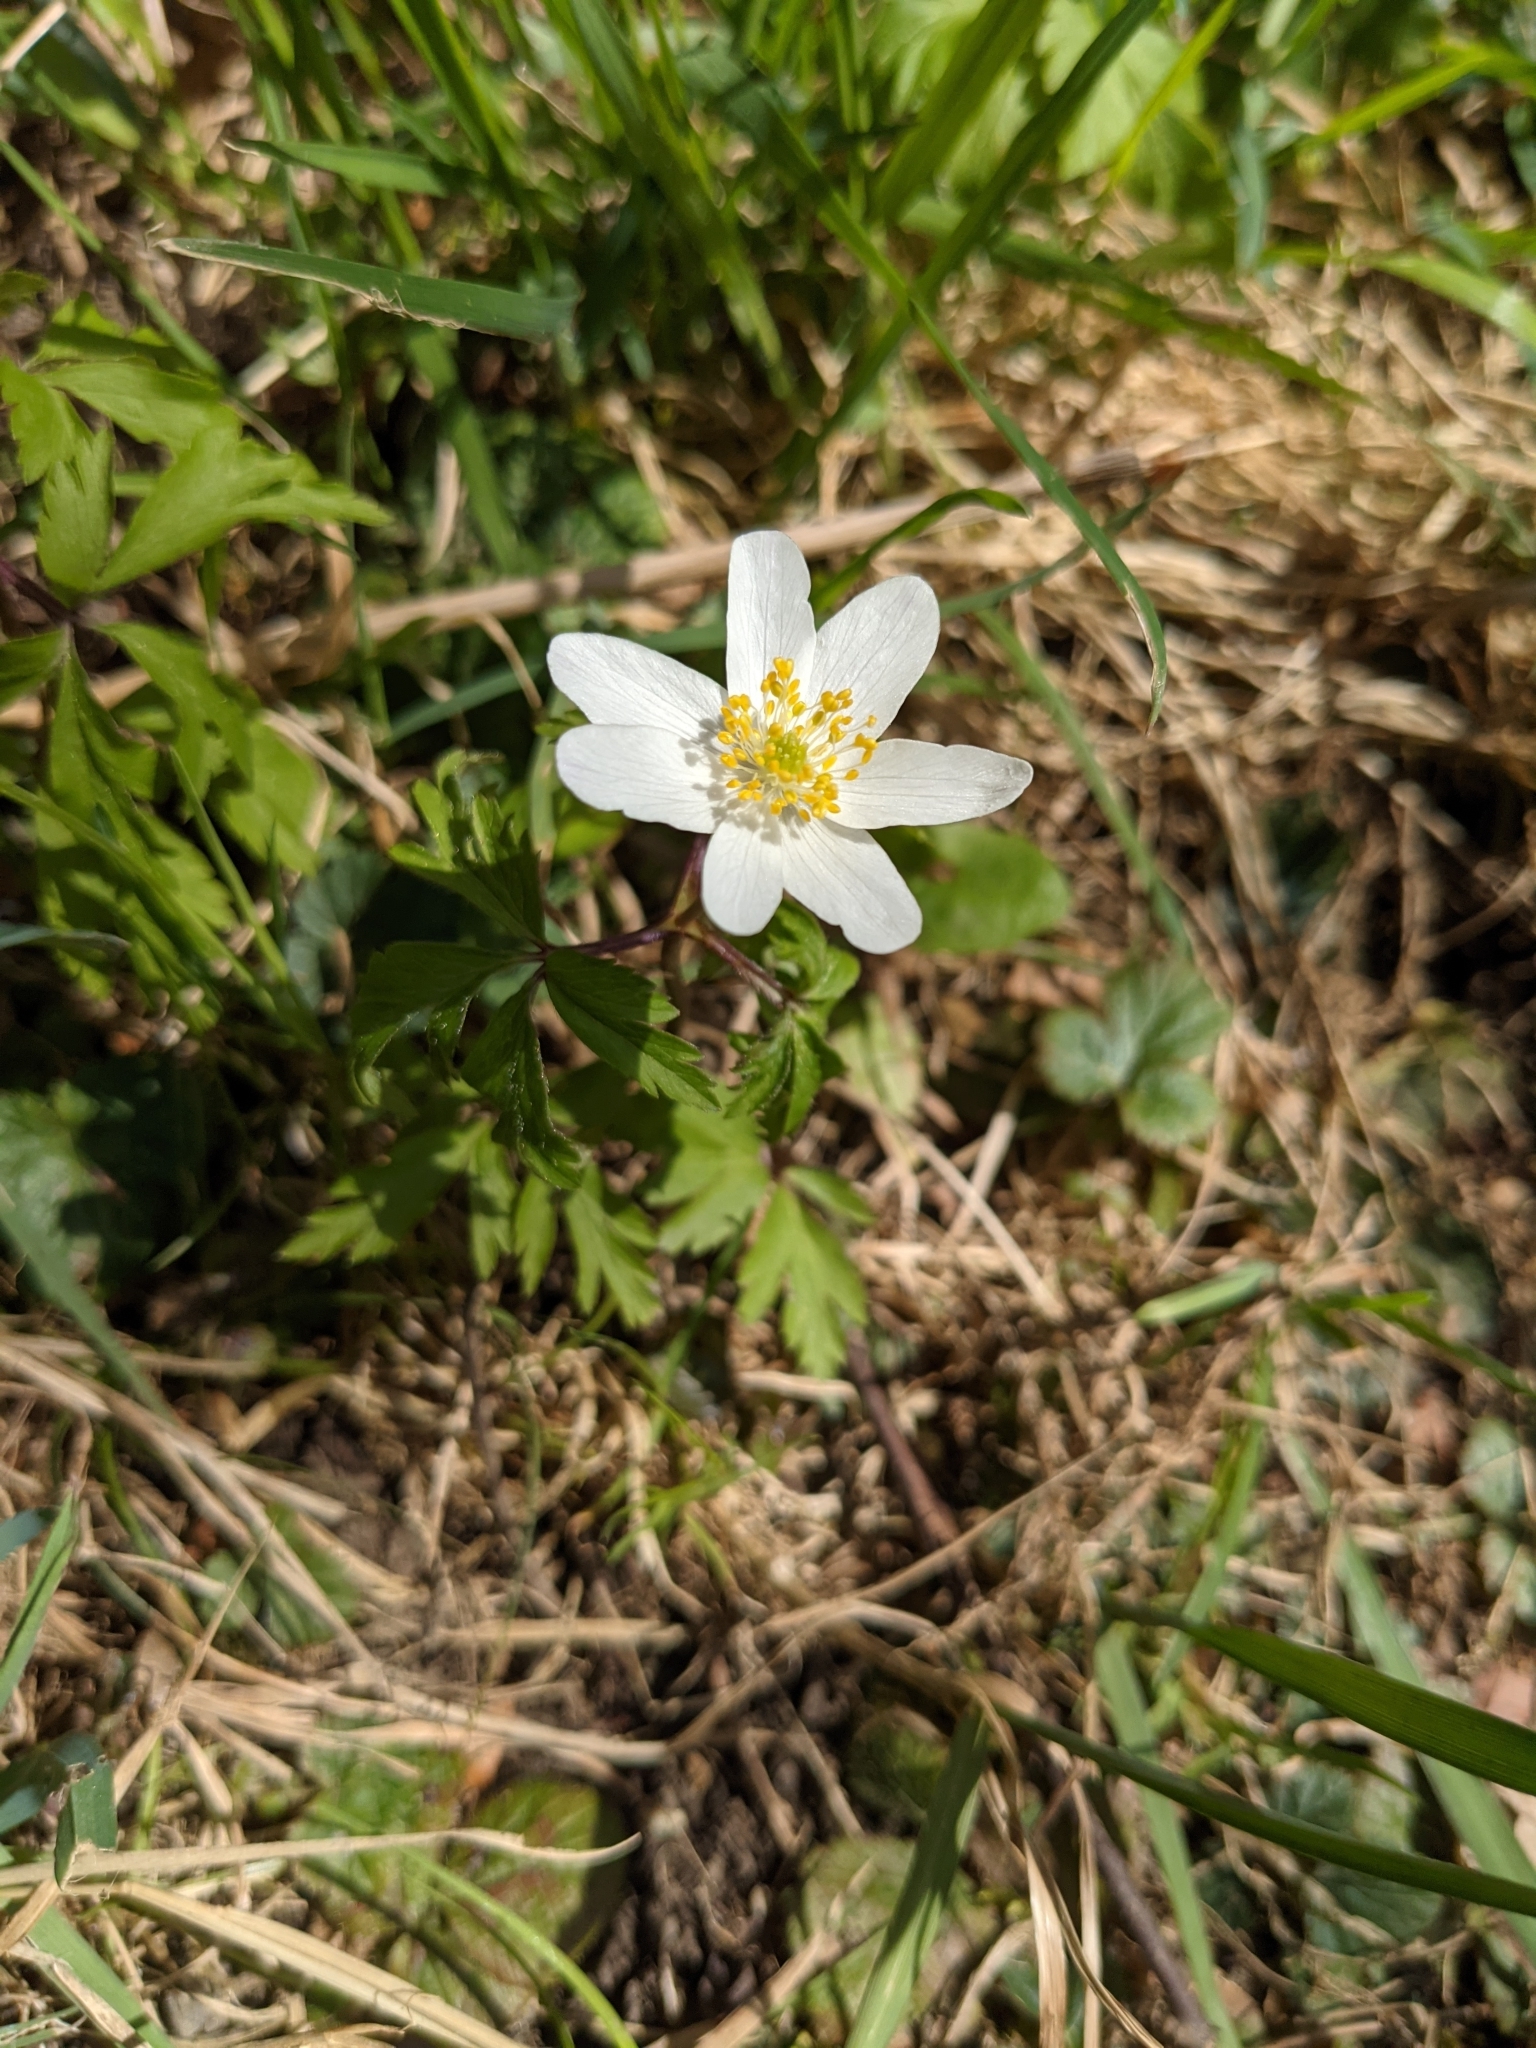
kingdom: Plantae
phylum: Tracheophyta
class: Magnoliopsida
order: Ranunculales
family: Ranunculaceae
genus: Anemone
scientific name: Anemone nemorosa
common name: Wood anemone
